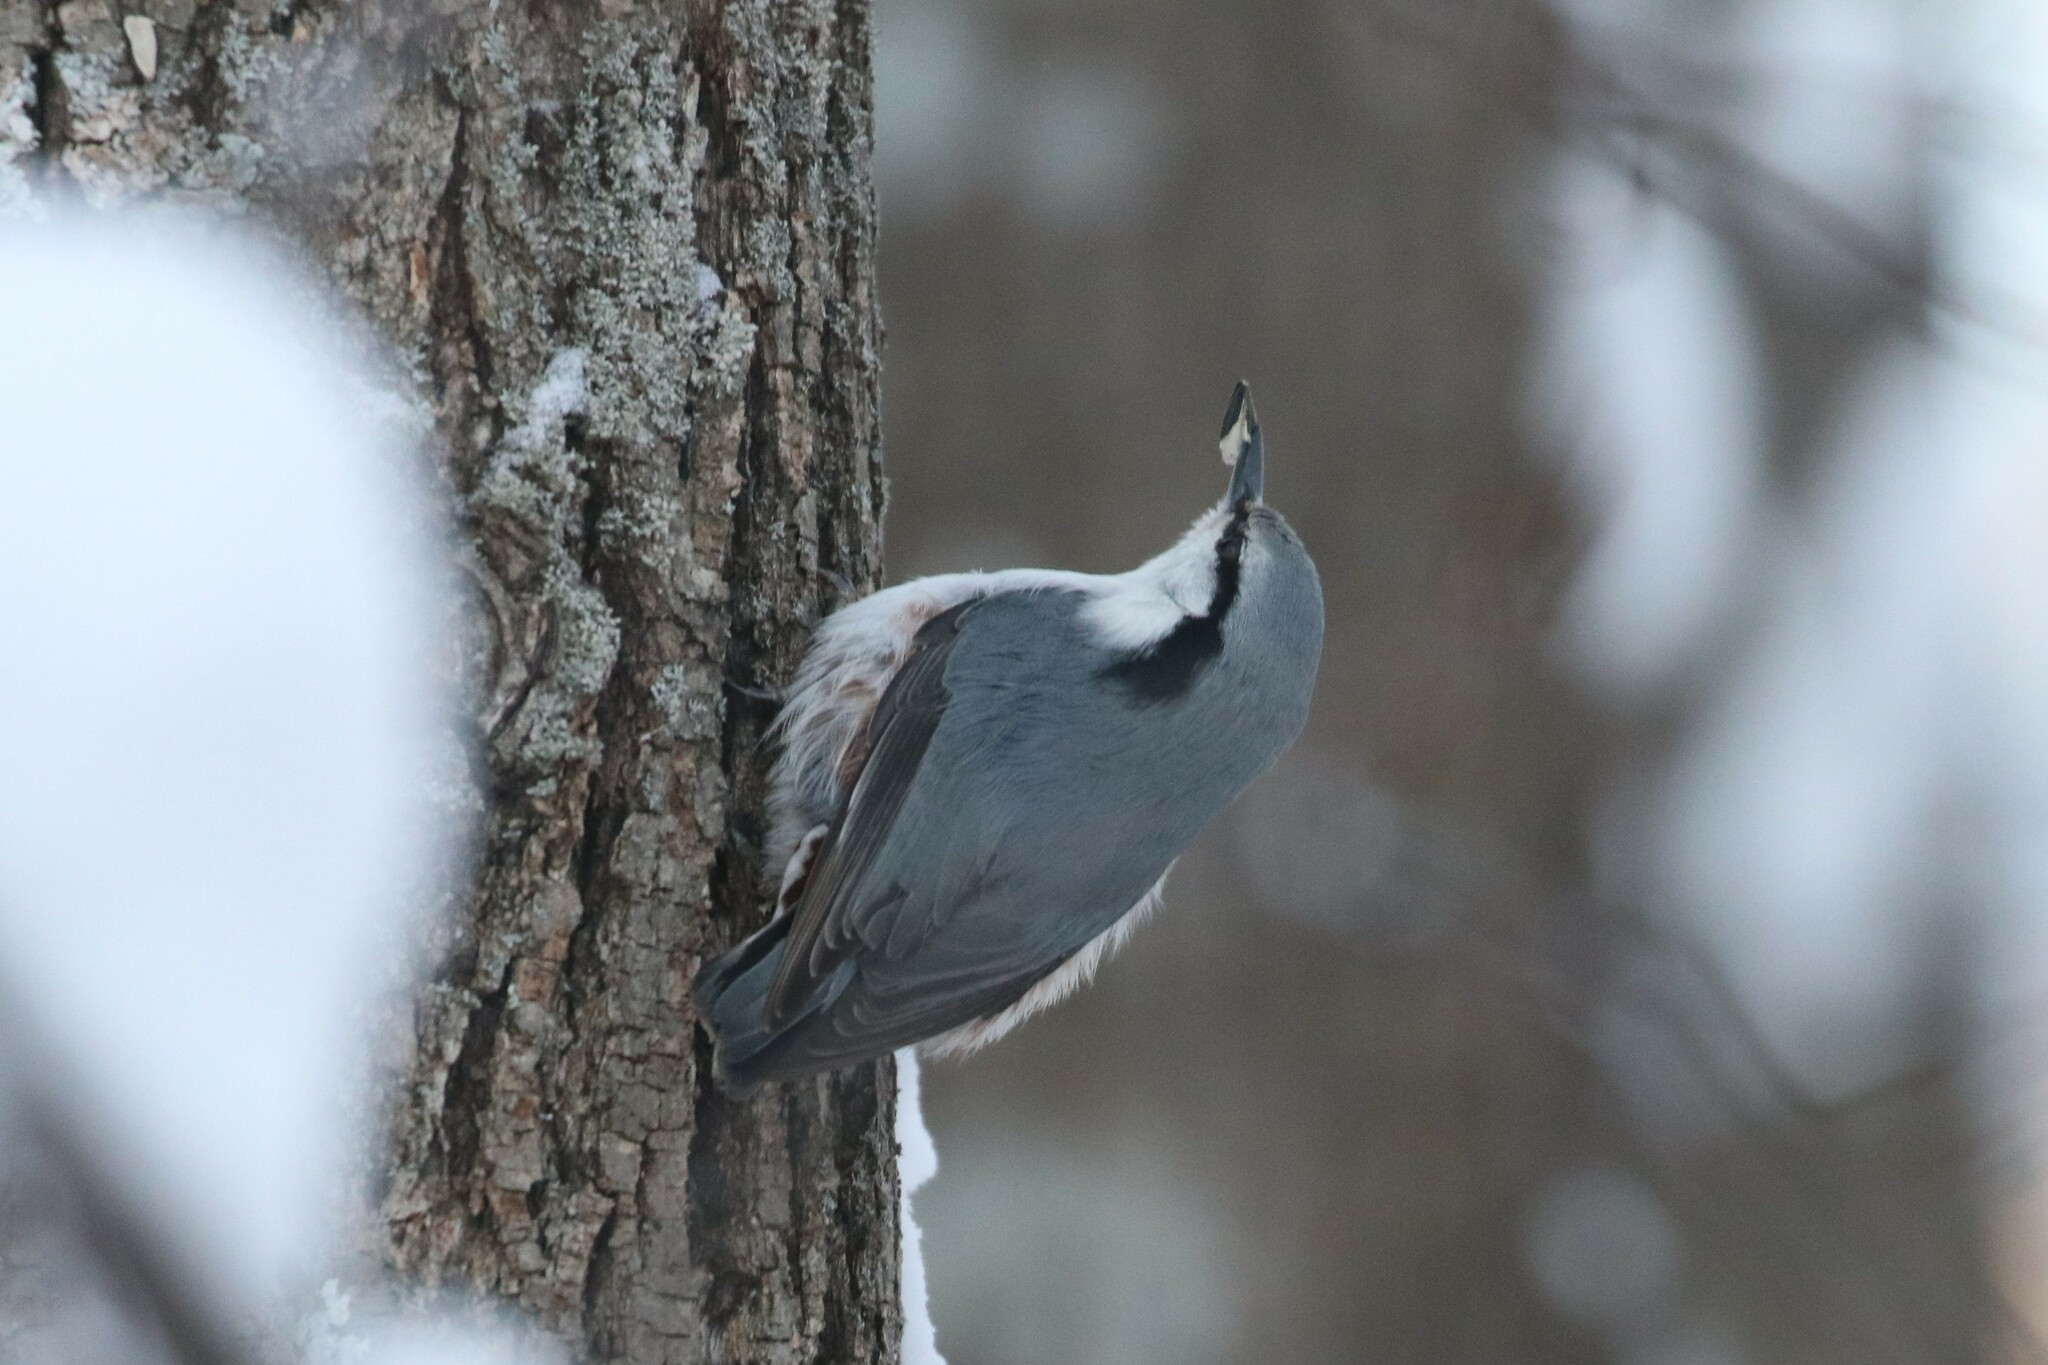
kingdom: Animalia
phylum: Chordata
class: Aves
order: Passeriformes
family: Sittidae
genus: Sitta
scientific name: Sitta europaea
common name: Eurasian nuthatch
